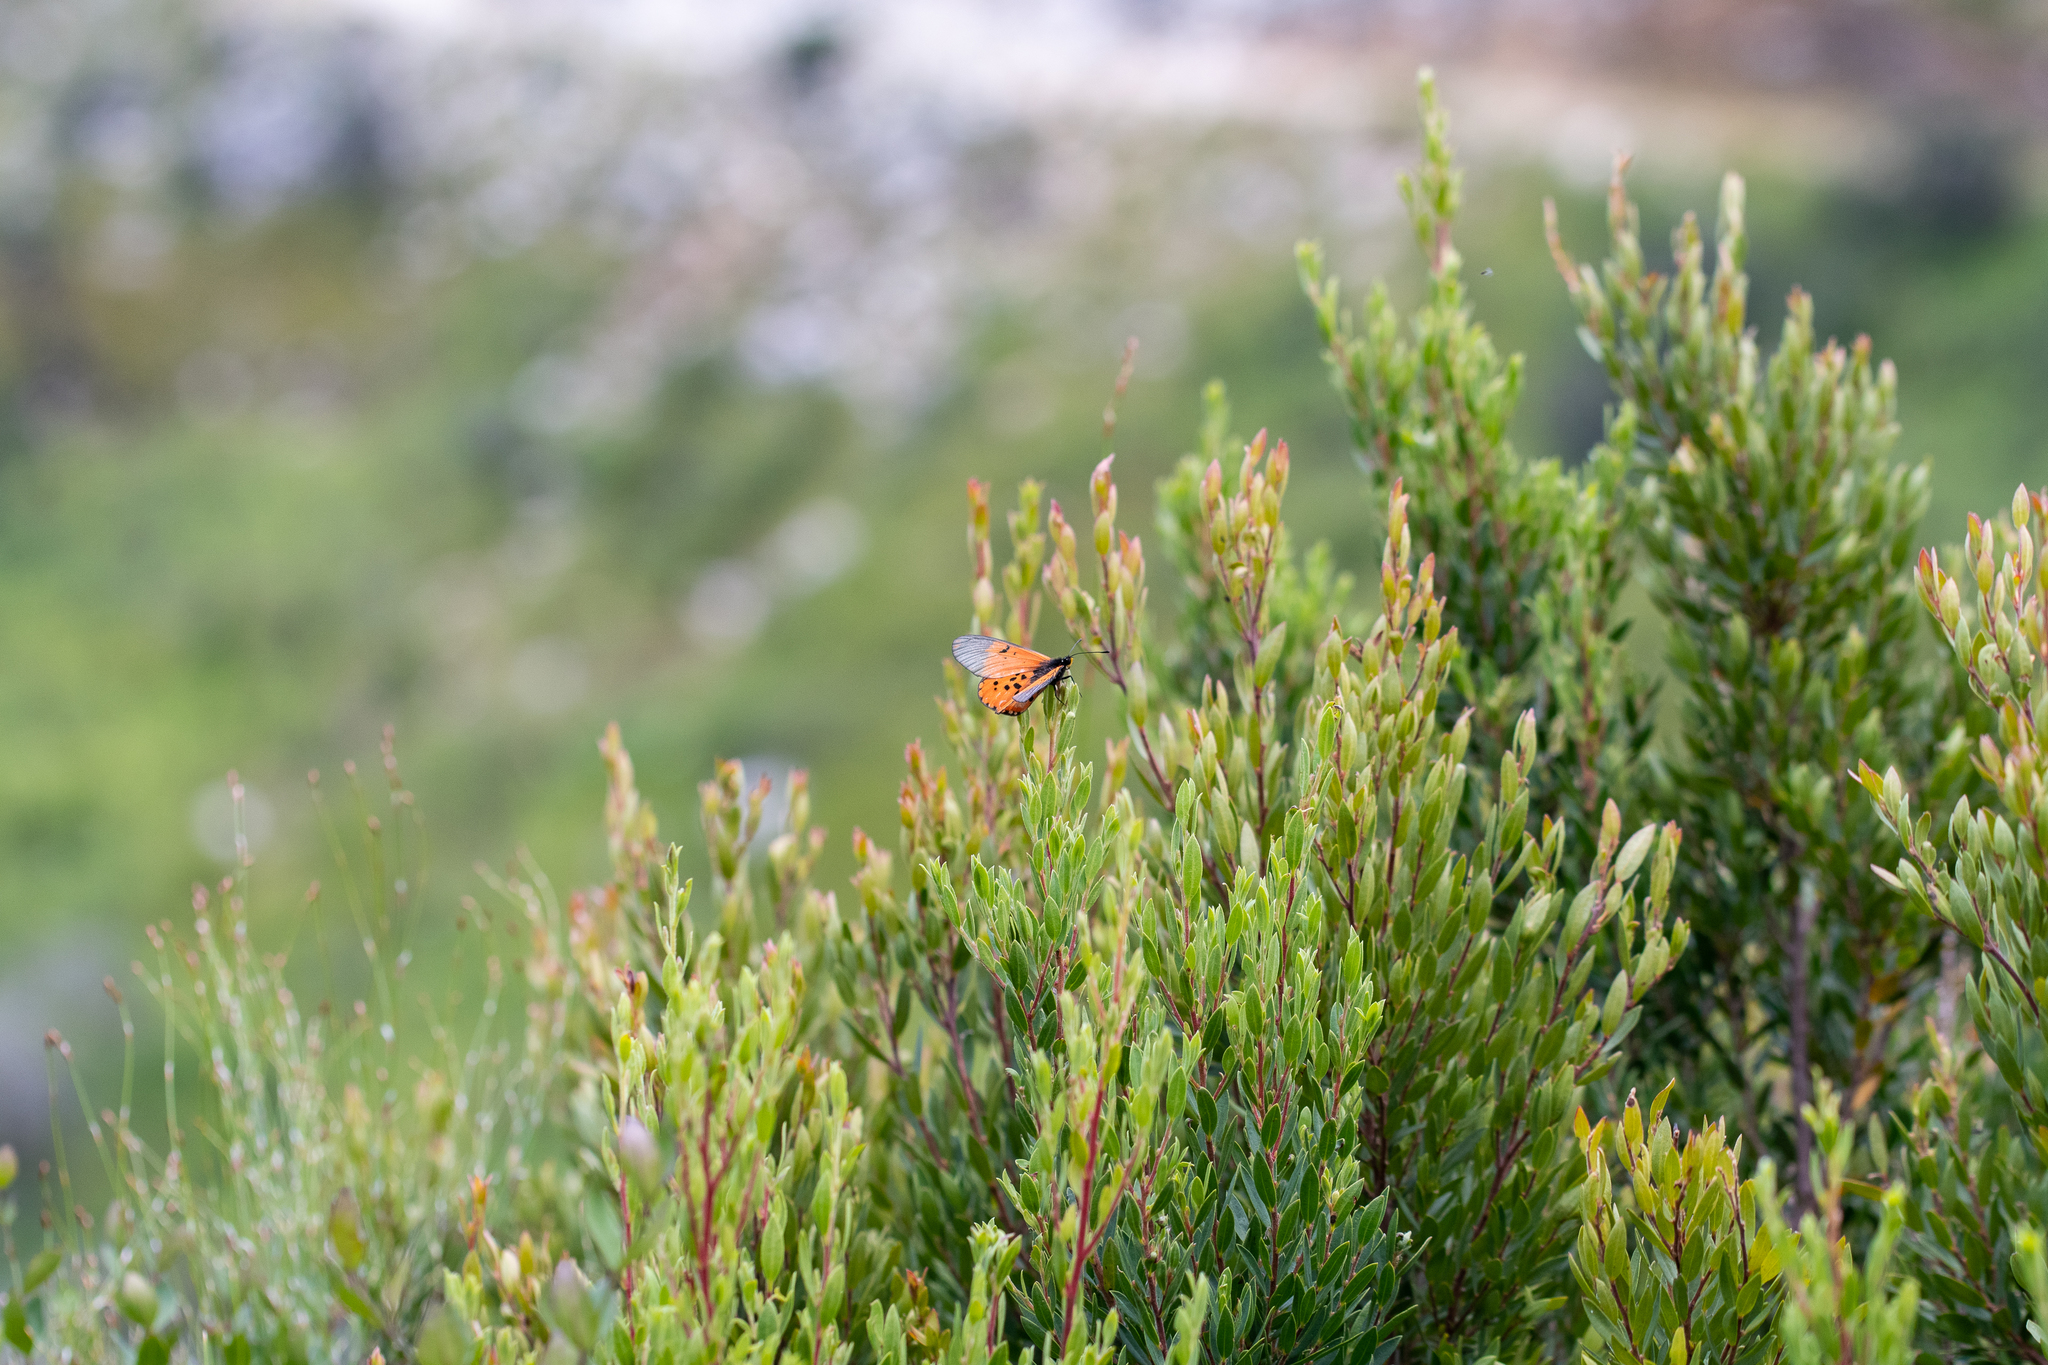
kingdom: Plantae
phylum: Tracheophyta
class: Magnoliopsida
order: Ericales
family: Ebenaceae
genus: Diospyros
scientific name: Diospyros glabra
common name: Fynbos star apple
